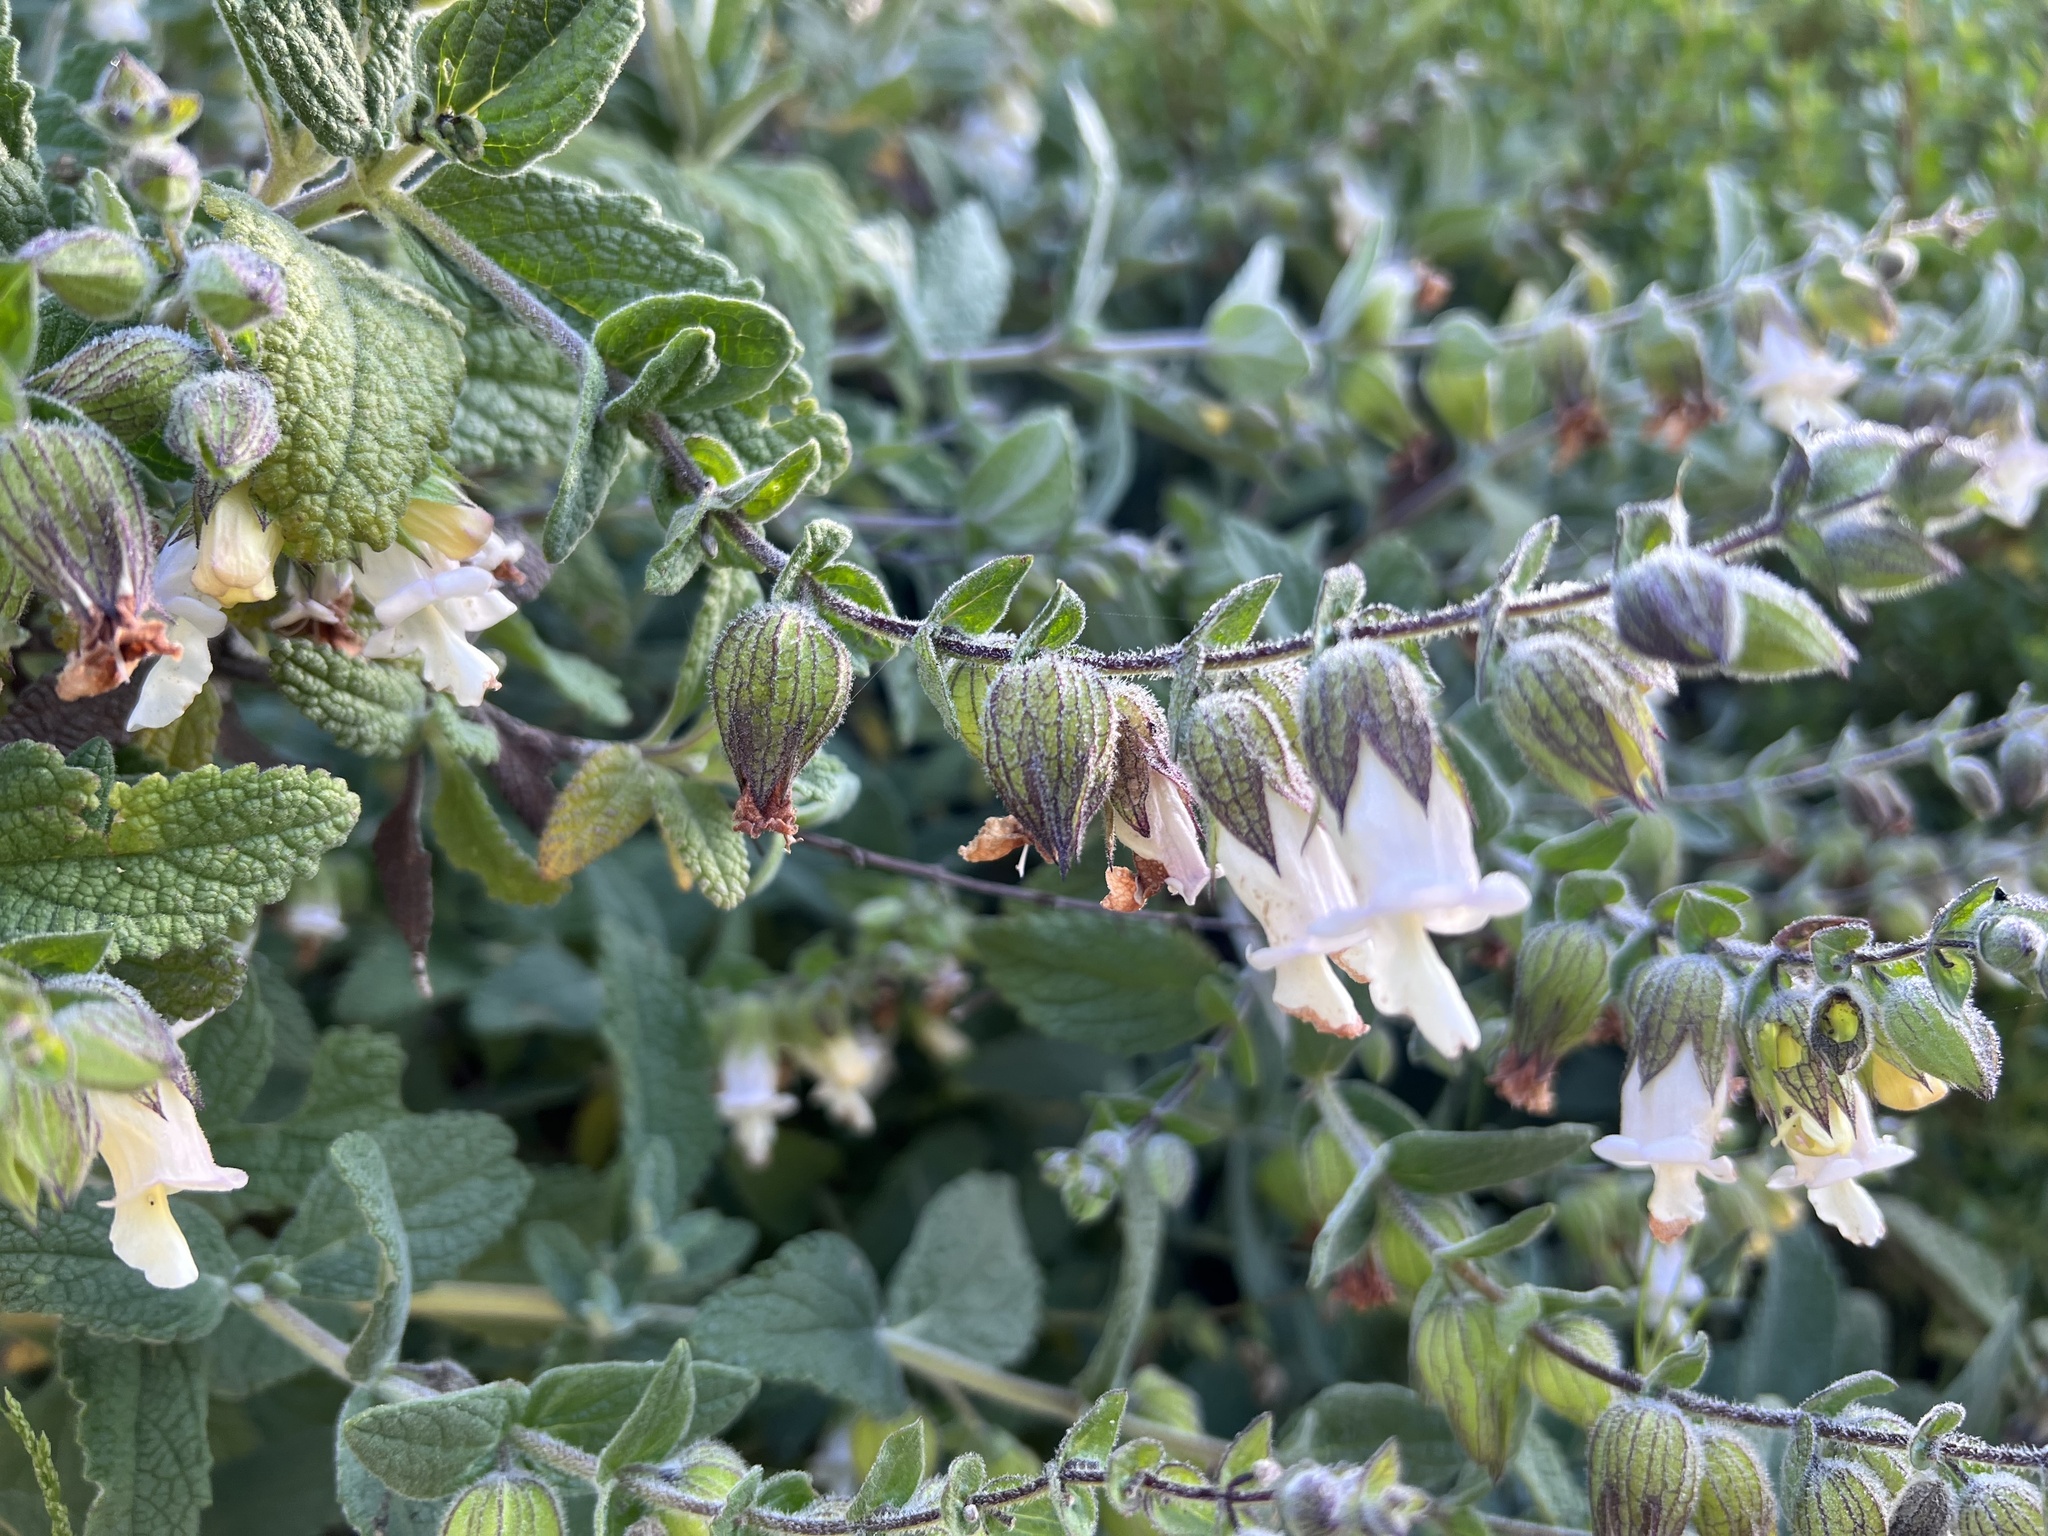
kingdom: Plantae
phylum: Tracheophyta
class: Magnoliopsida
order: Lamiales
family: Lamiaceae
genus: Lepechinia
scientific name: Lepechinia calycina
